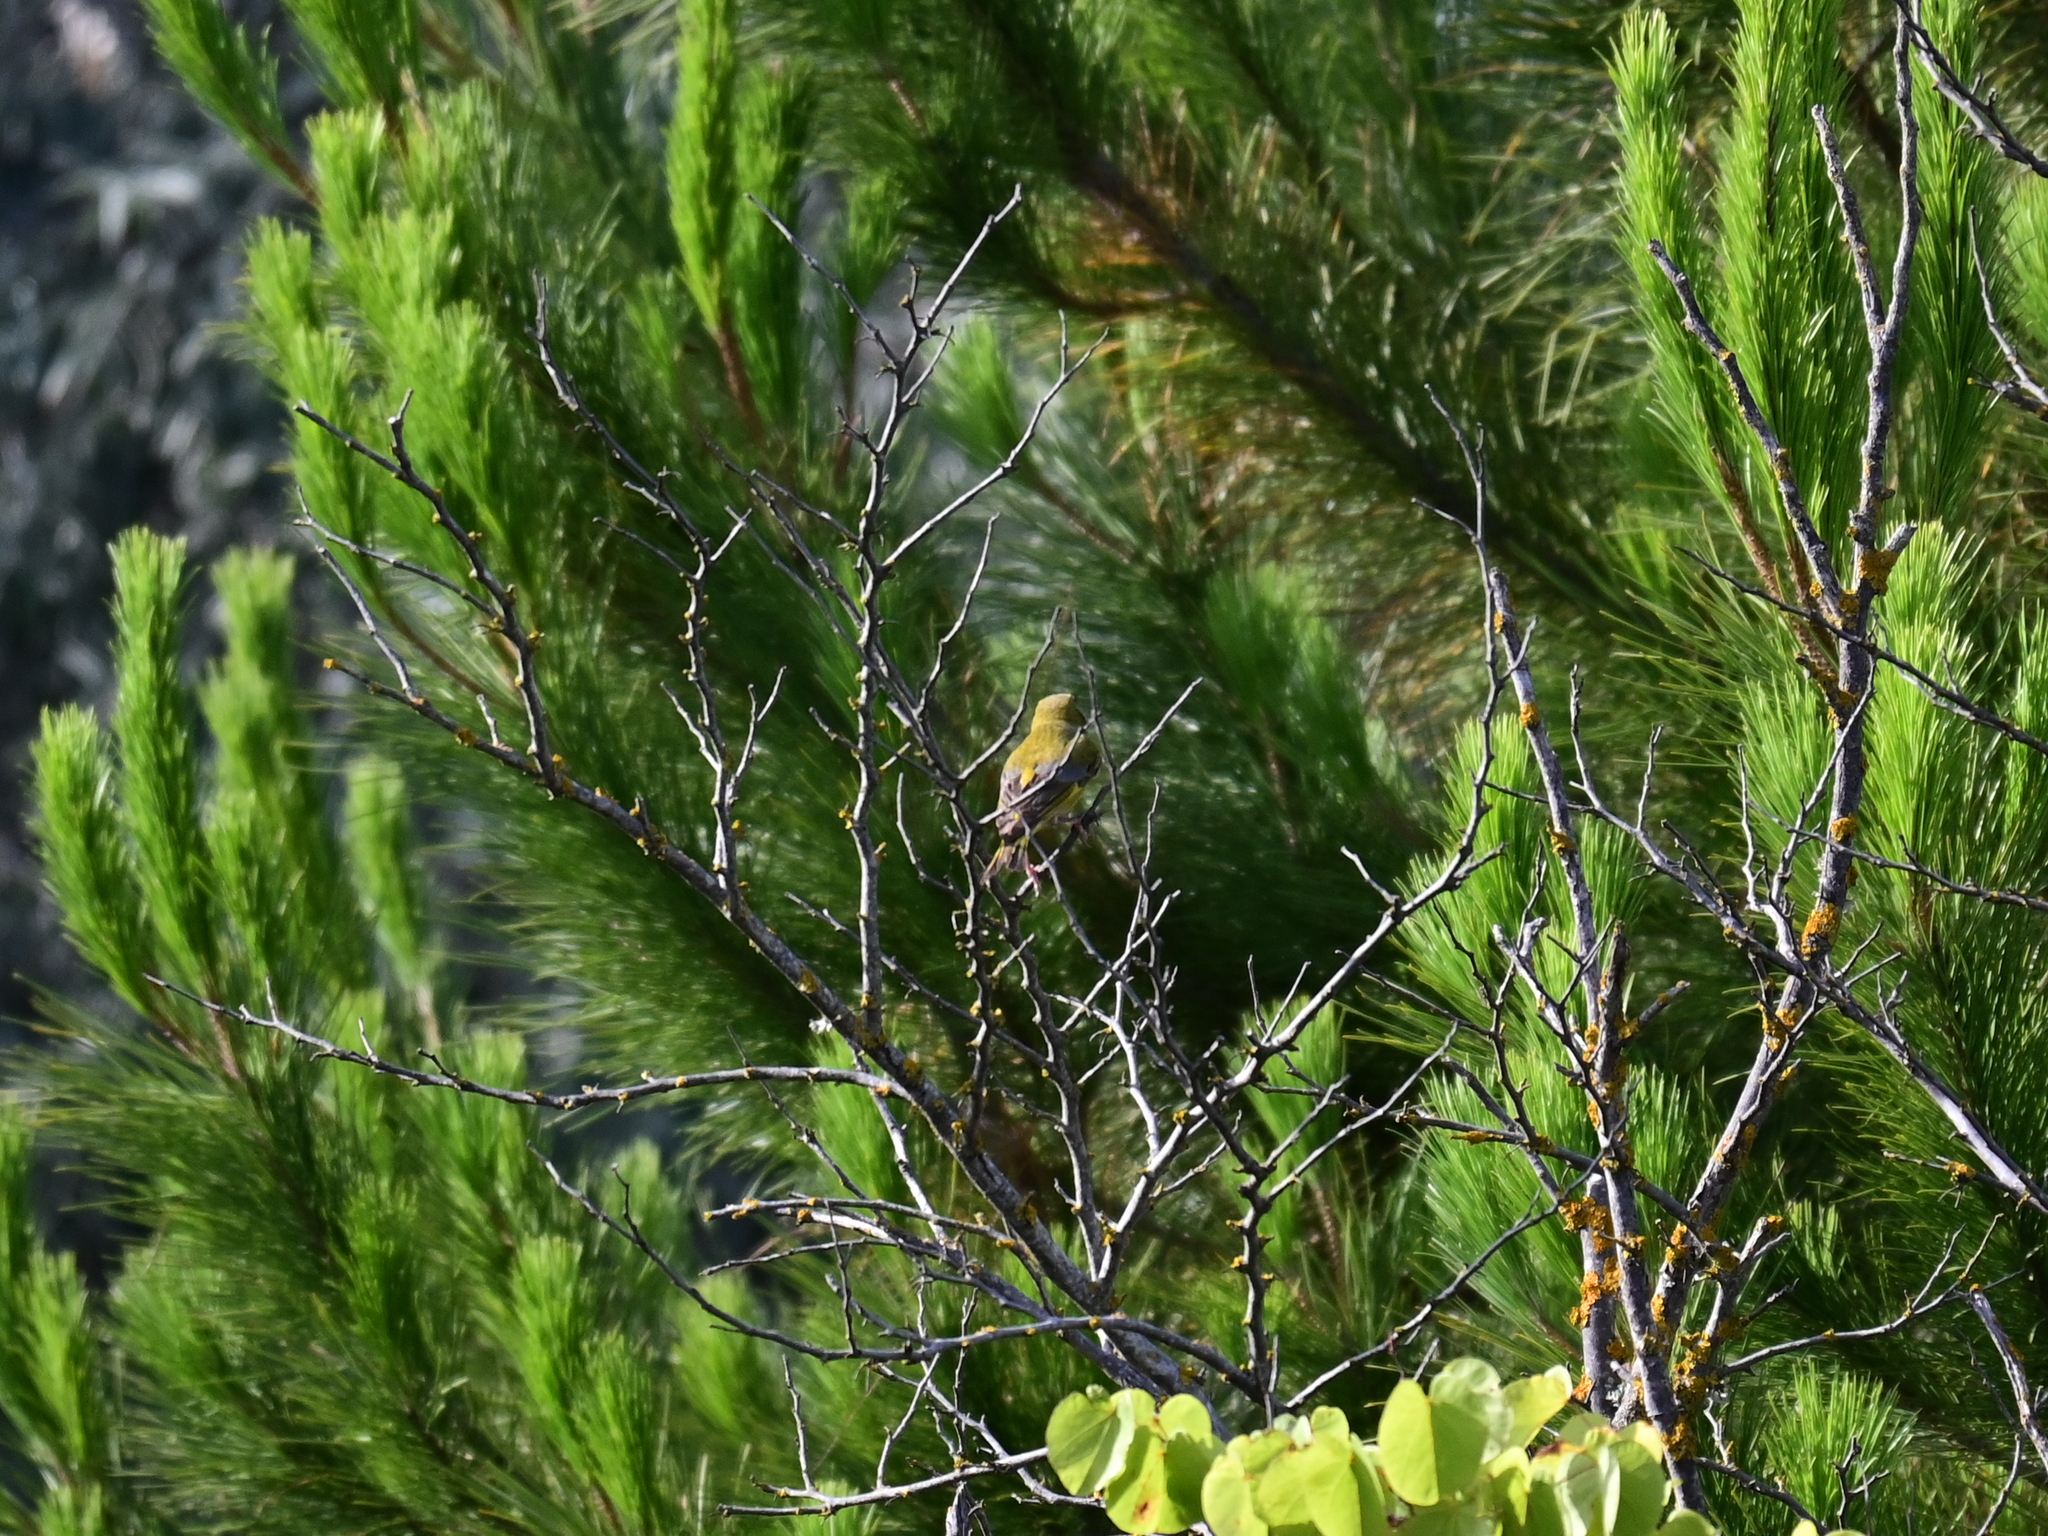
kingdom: Plantae
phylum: Tracheophyta
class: Liliopsida
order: Poales
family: Poaceae
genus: Chloris
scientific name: Chloris chloris
